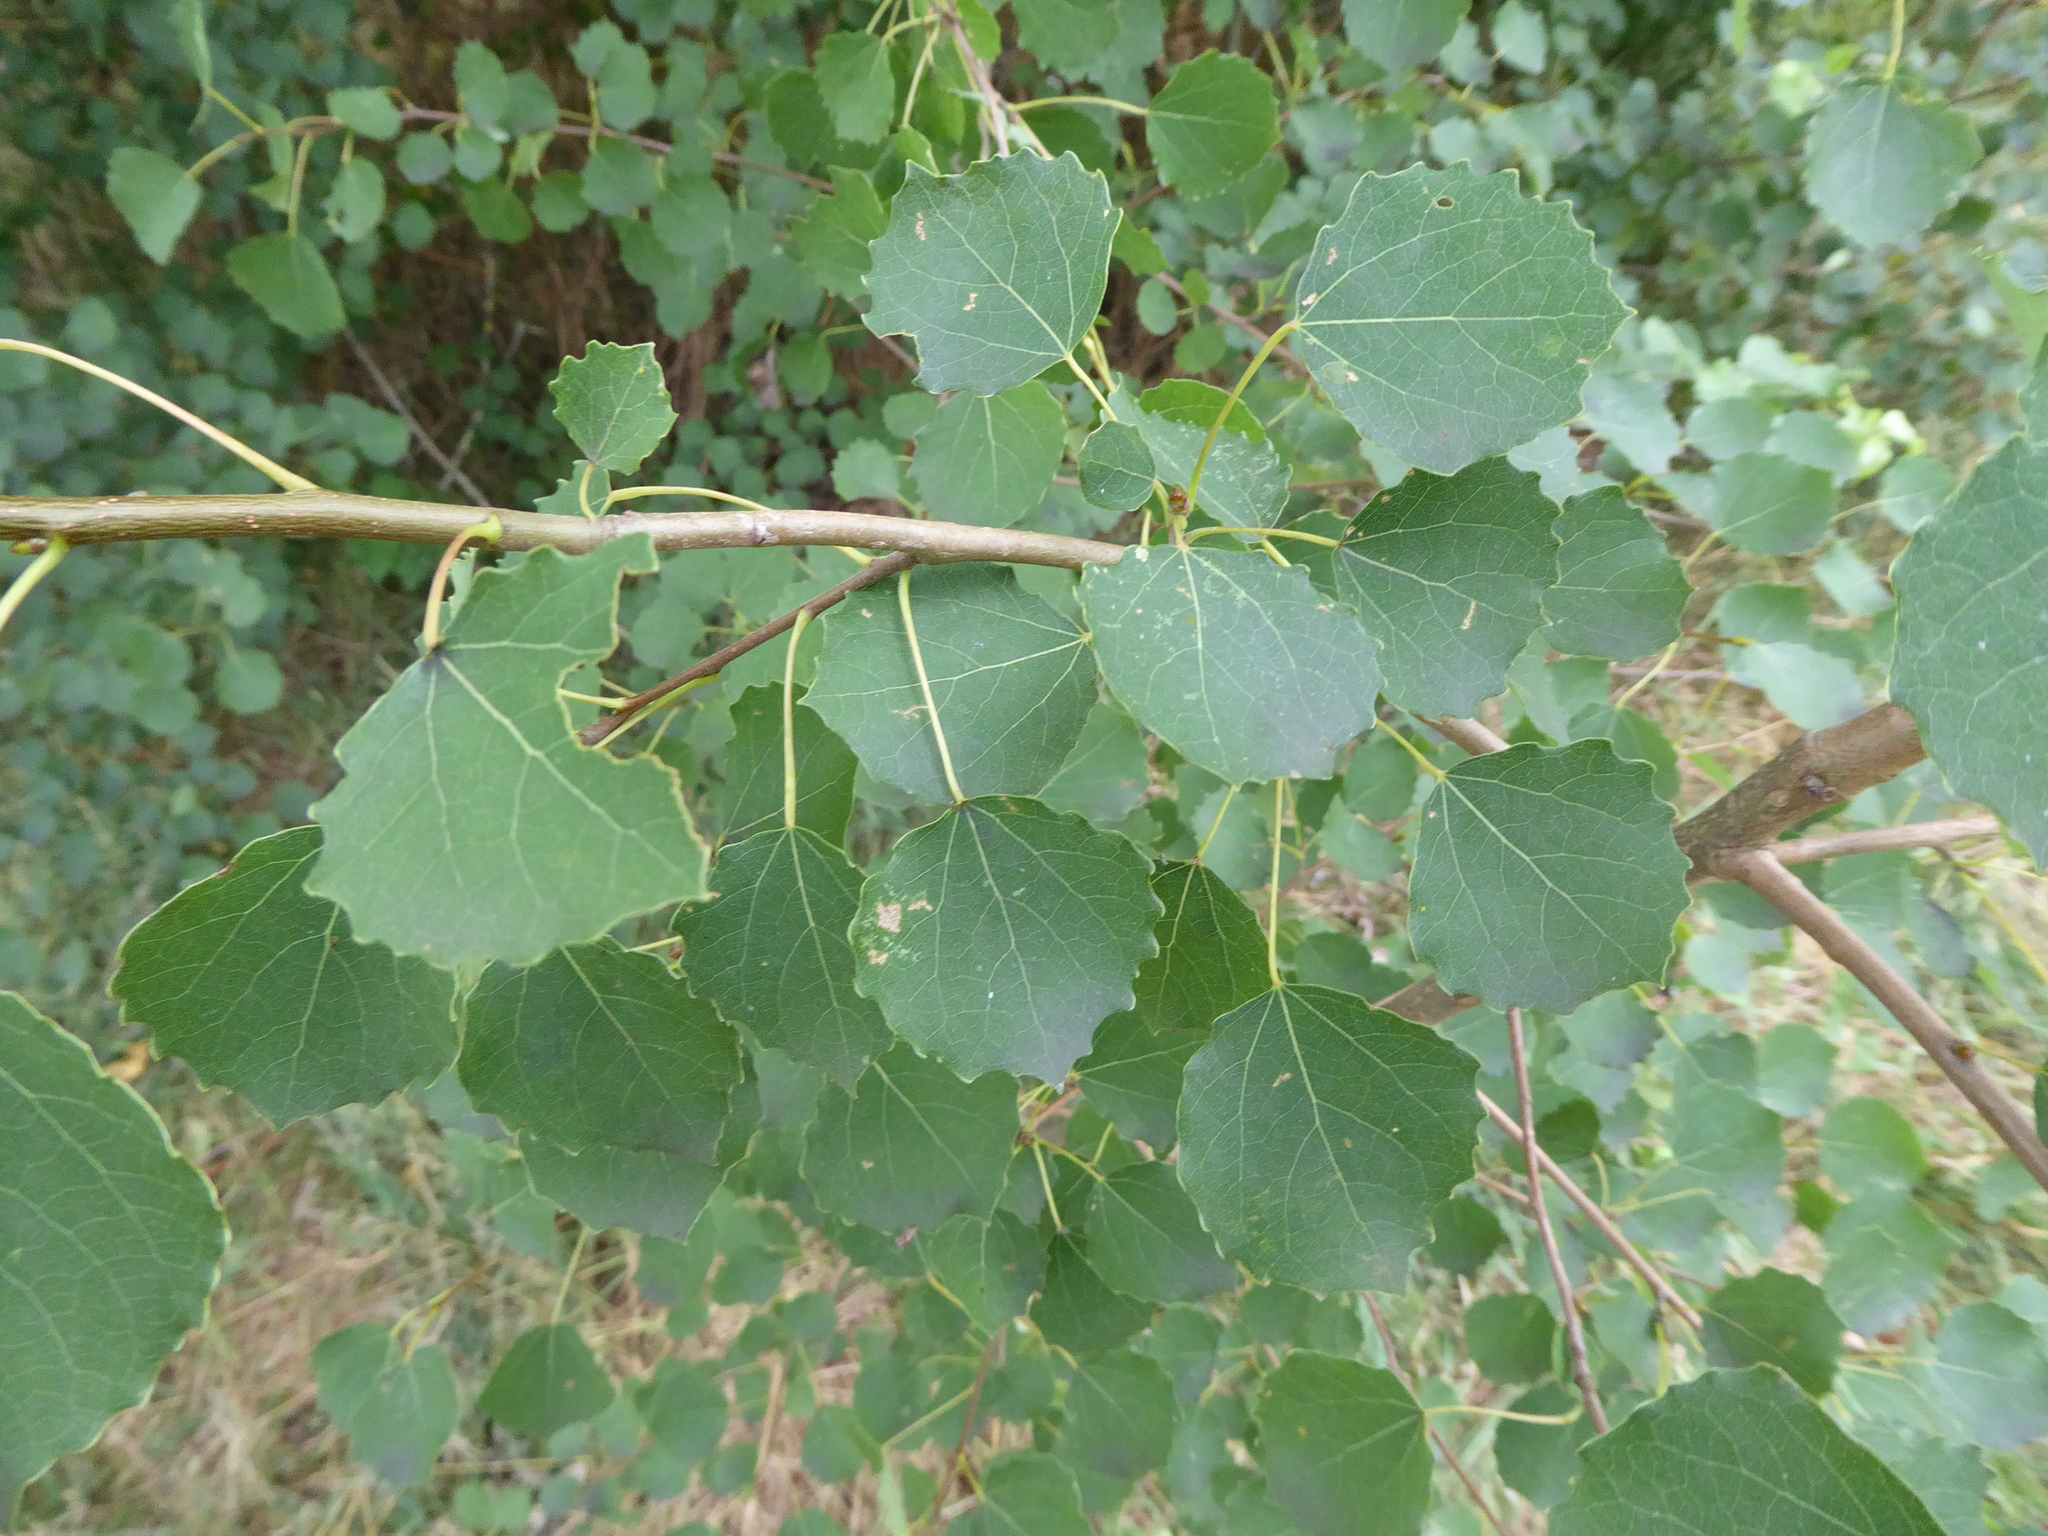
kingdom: Plantae
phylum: Tracheophyta
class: Magnoliopsida
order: Malpighiales
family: Salicaceae
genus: Populus
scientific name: Populus tremula
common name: European aspen
